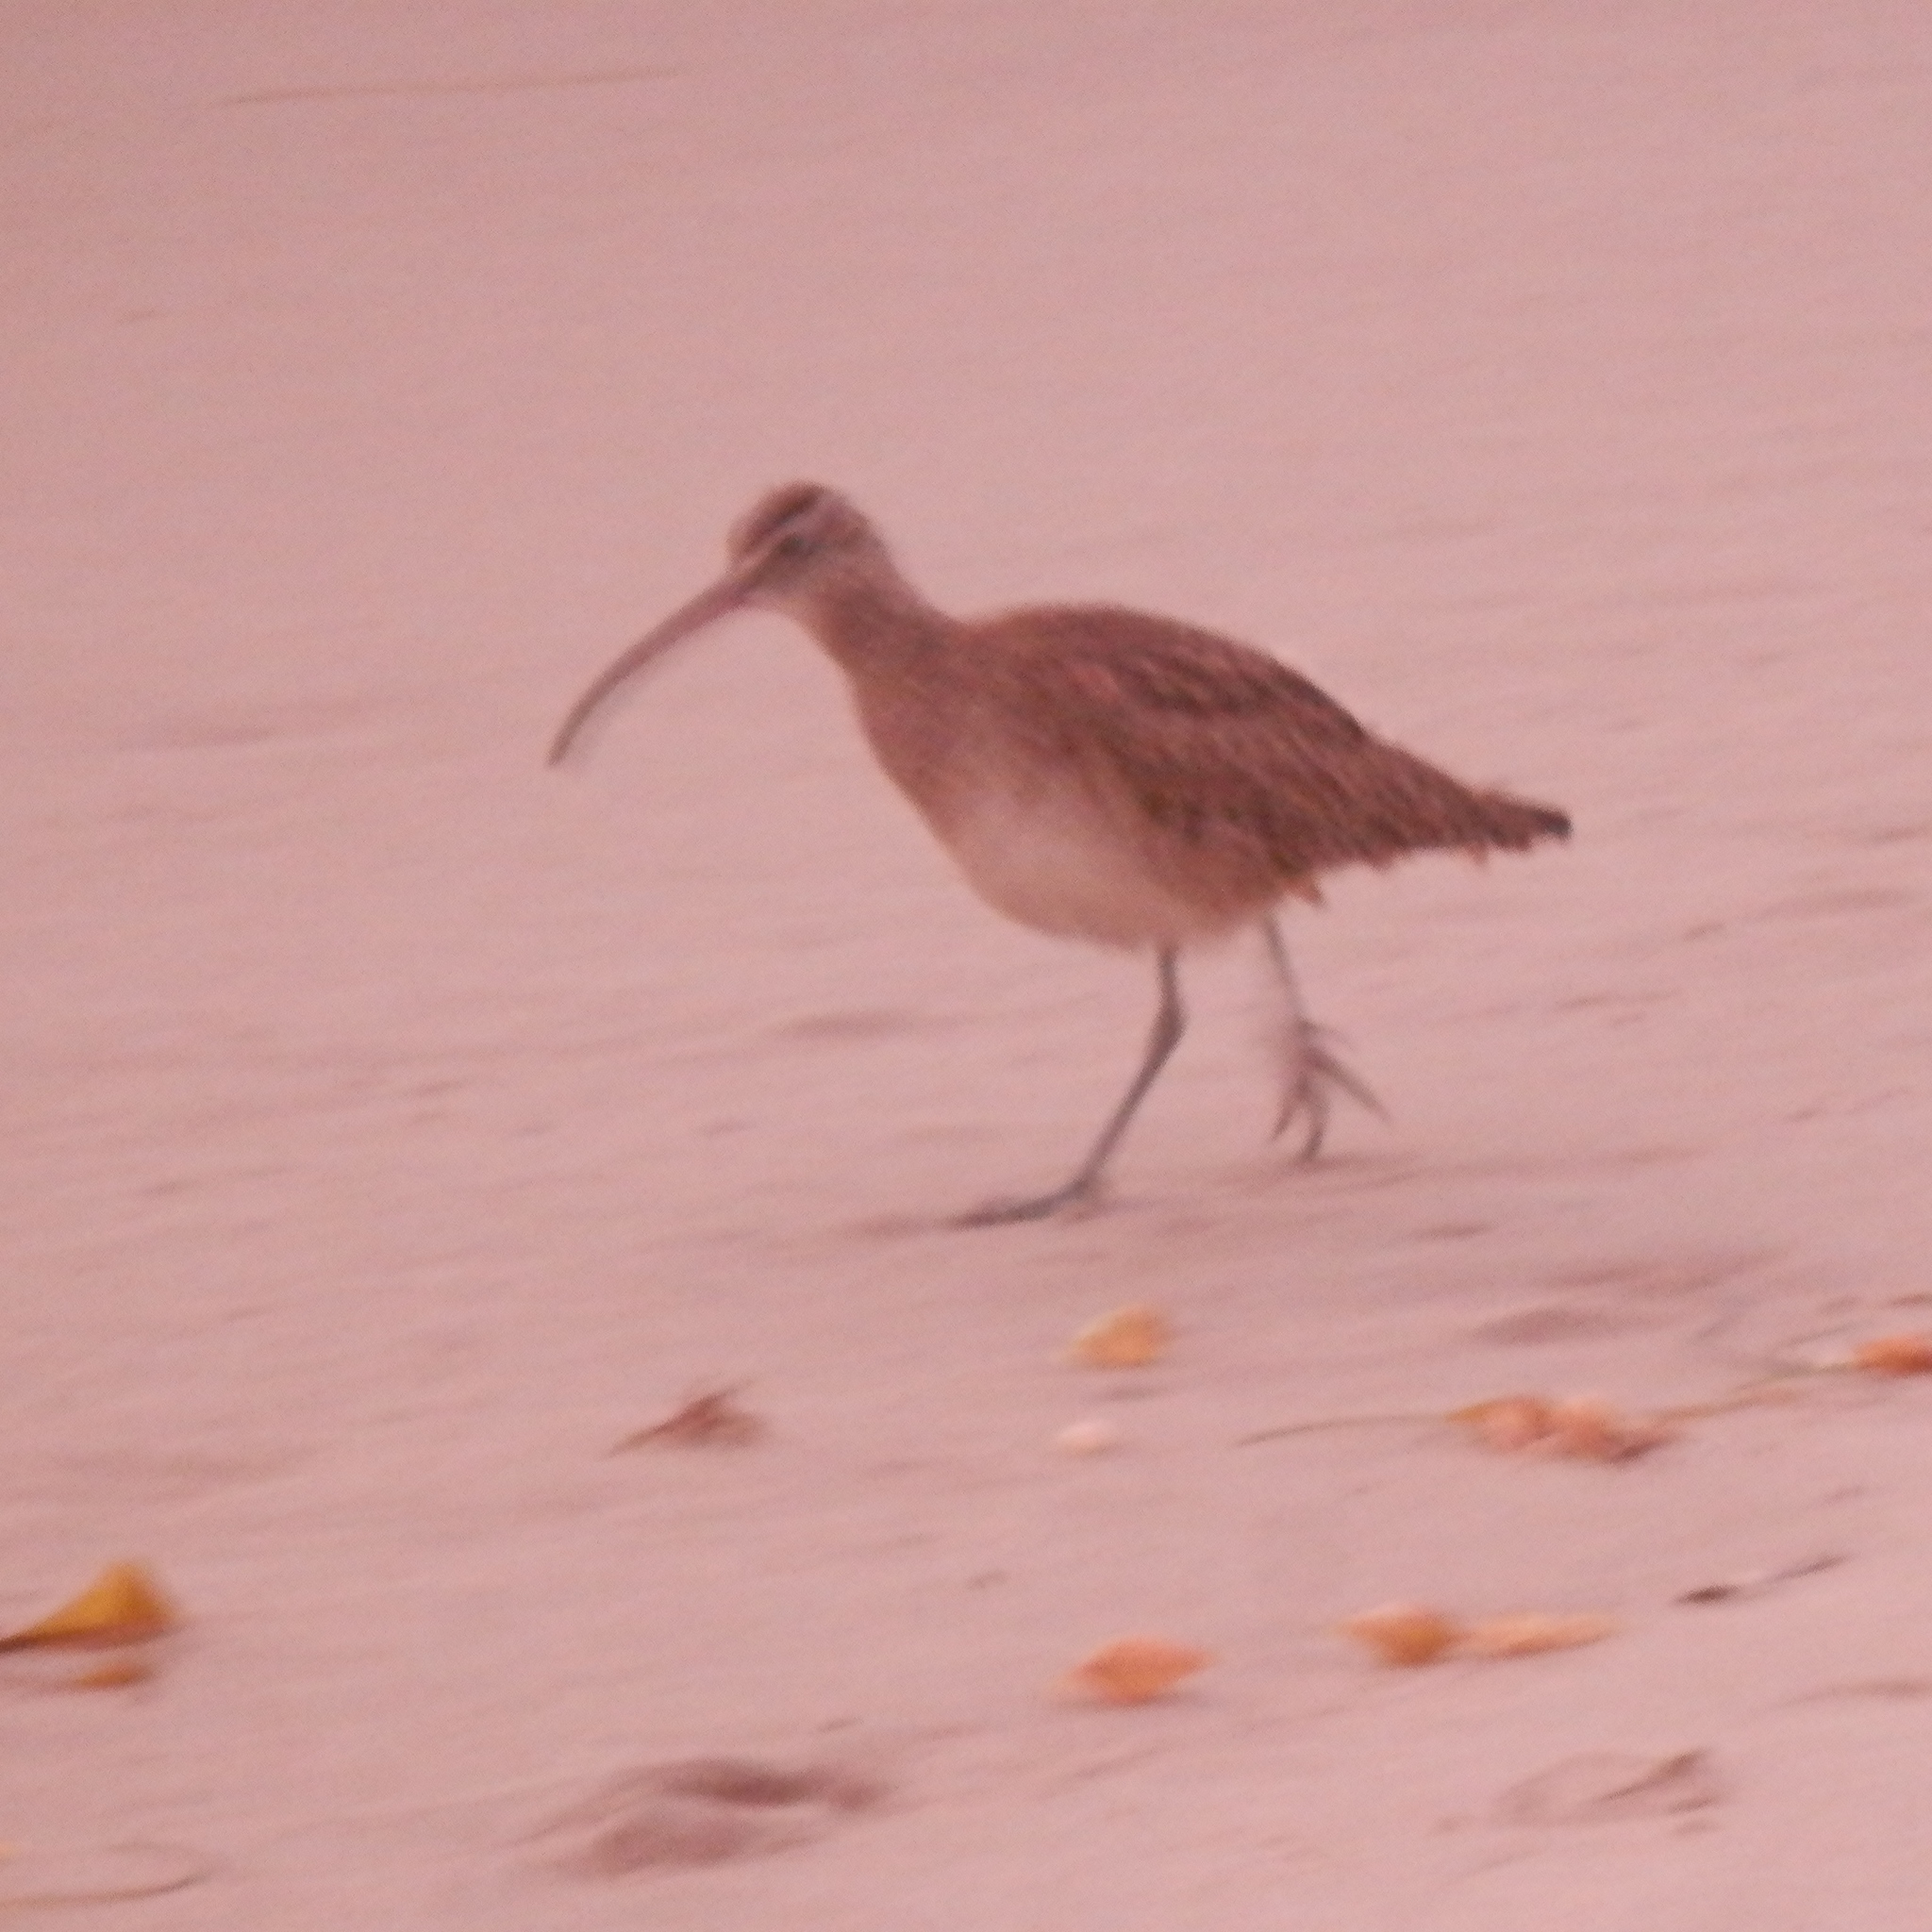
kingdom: Animalia
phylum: Chordata
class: Aves
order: Charadriiformes
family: Scolopacidae
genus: Numenius
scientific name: Numenius phaeopus
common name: Whimbrel
